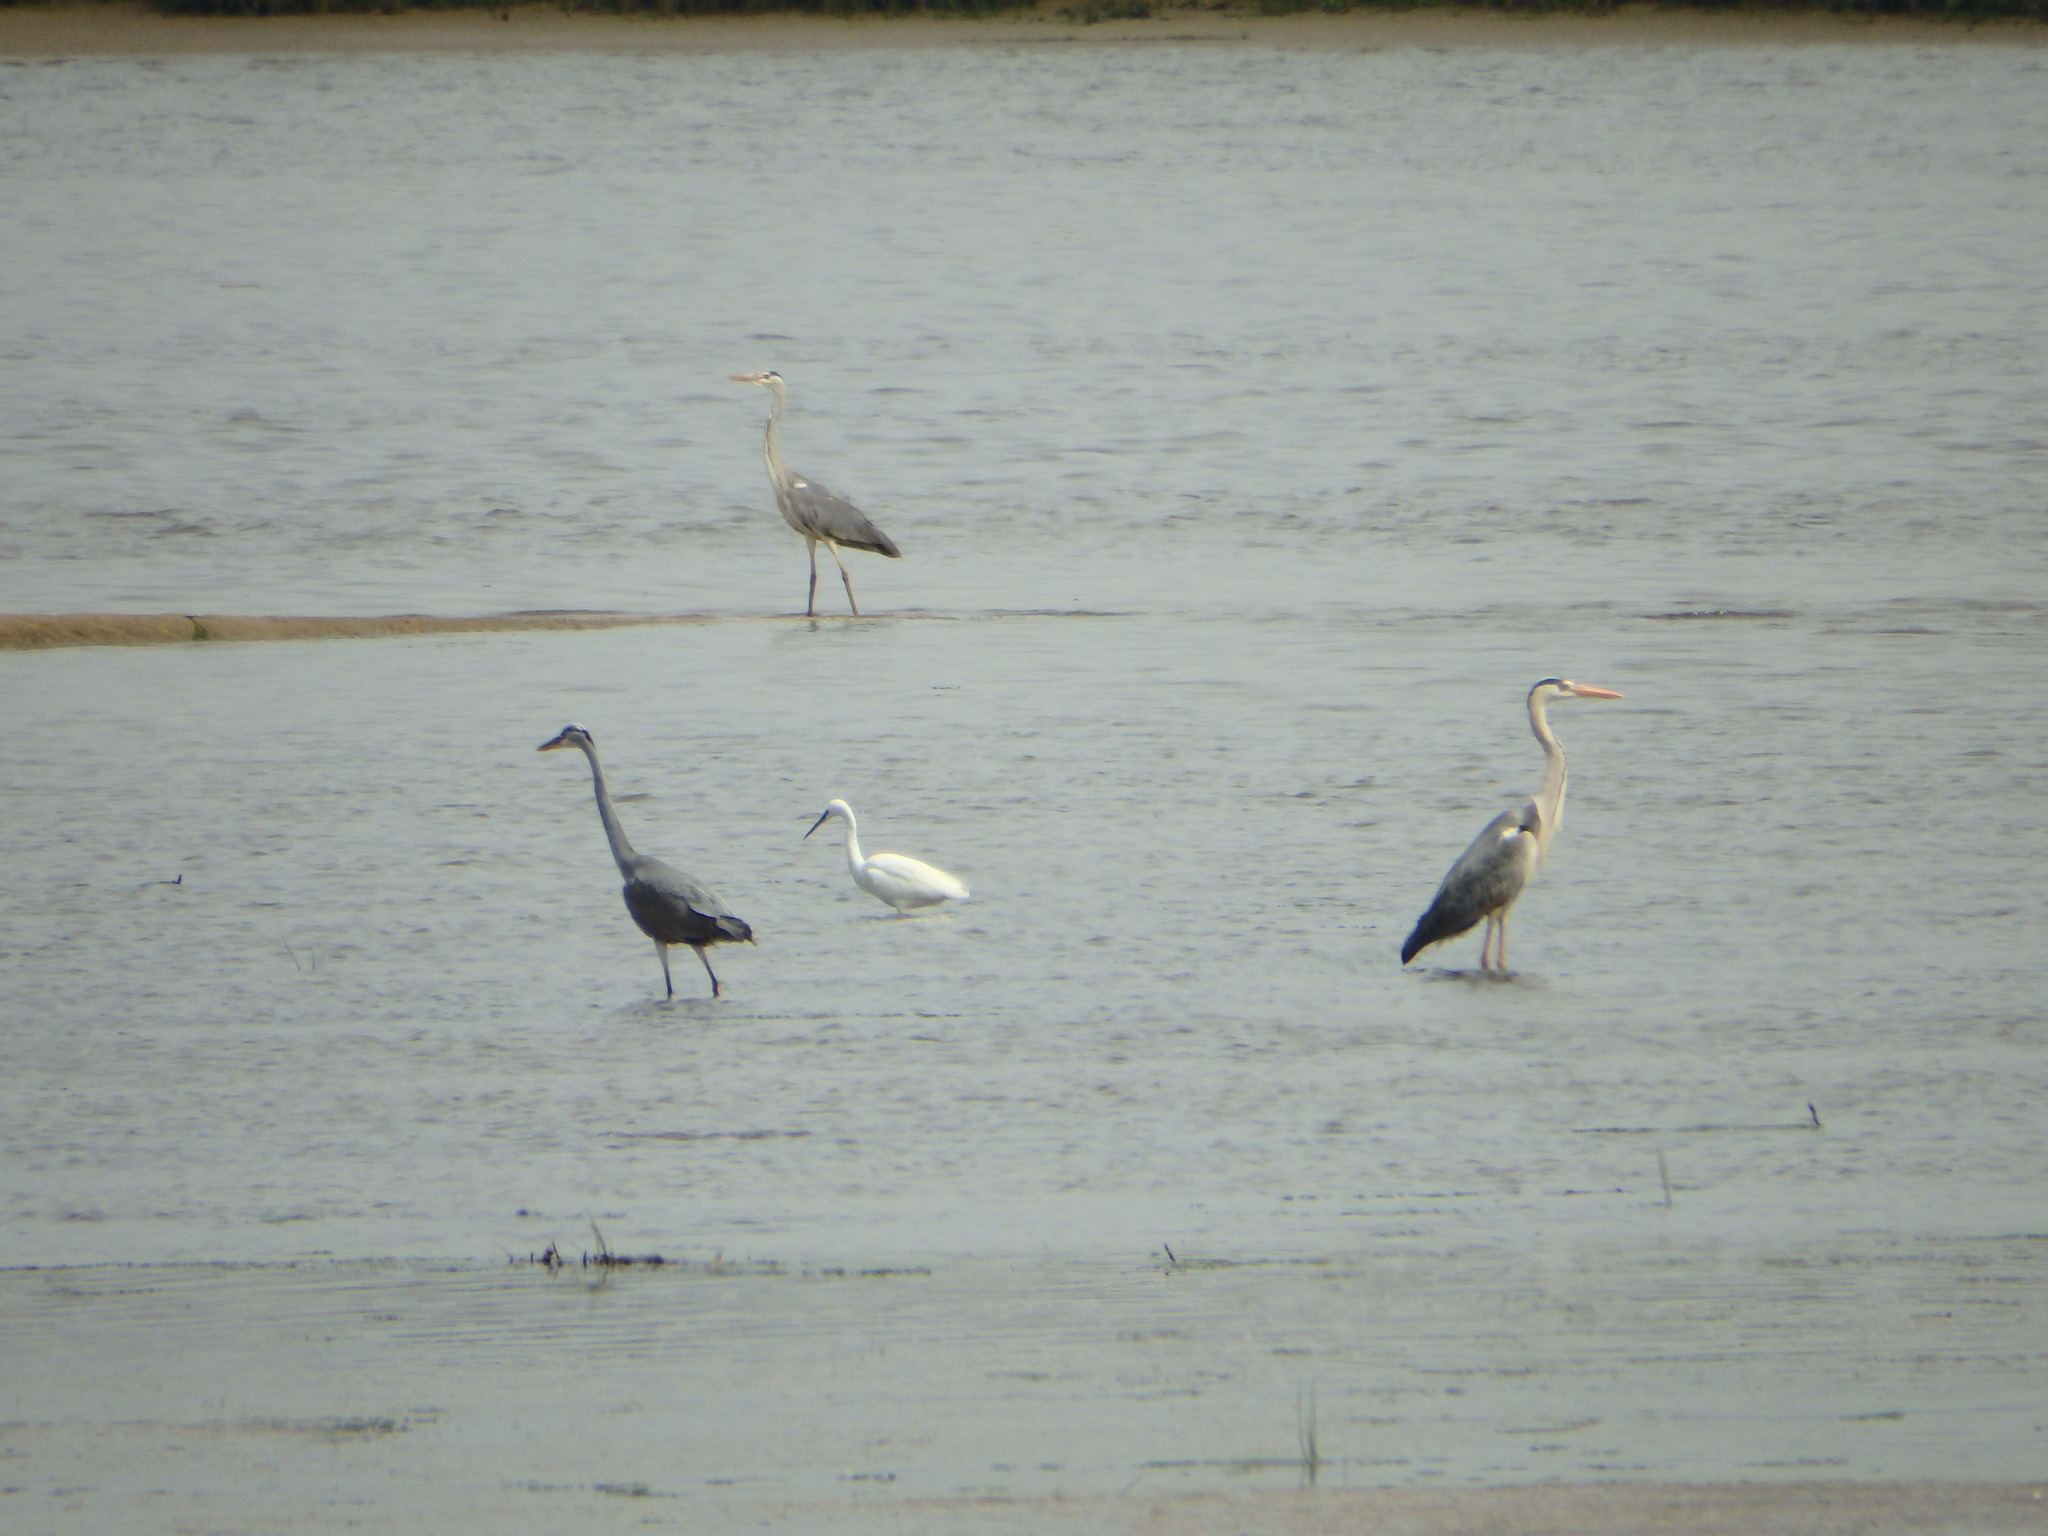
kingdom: Animalia
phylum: Chordata
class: Aves
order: Pelecaniformes
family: Ardeidae
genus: Egretta
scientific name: Egretta garzetta
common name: Little egret
